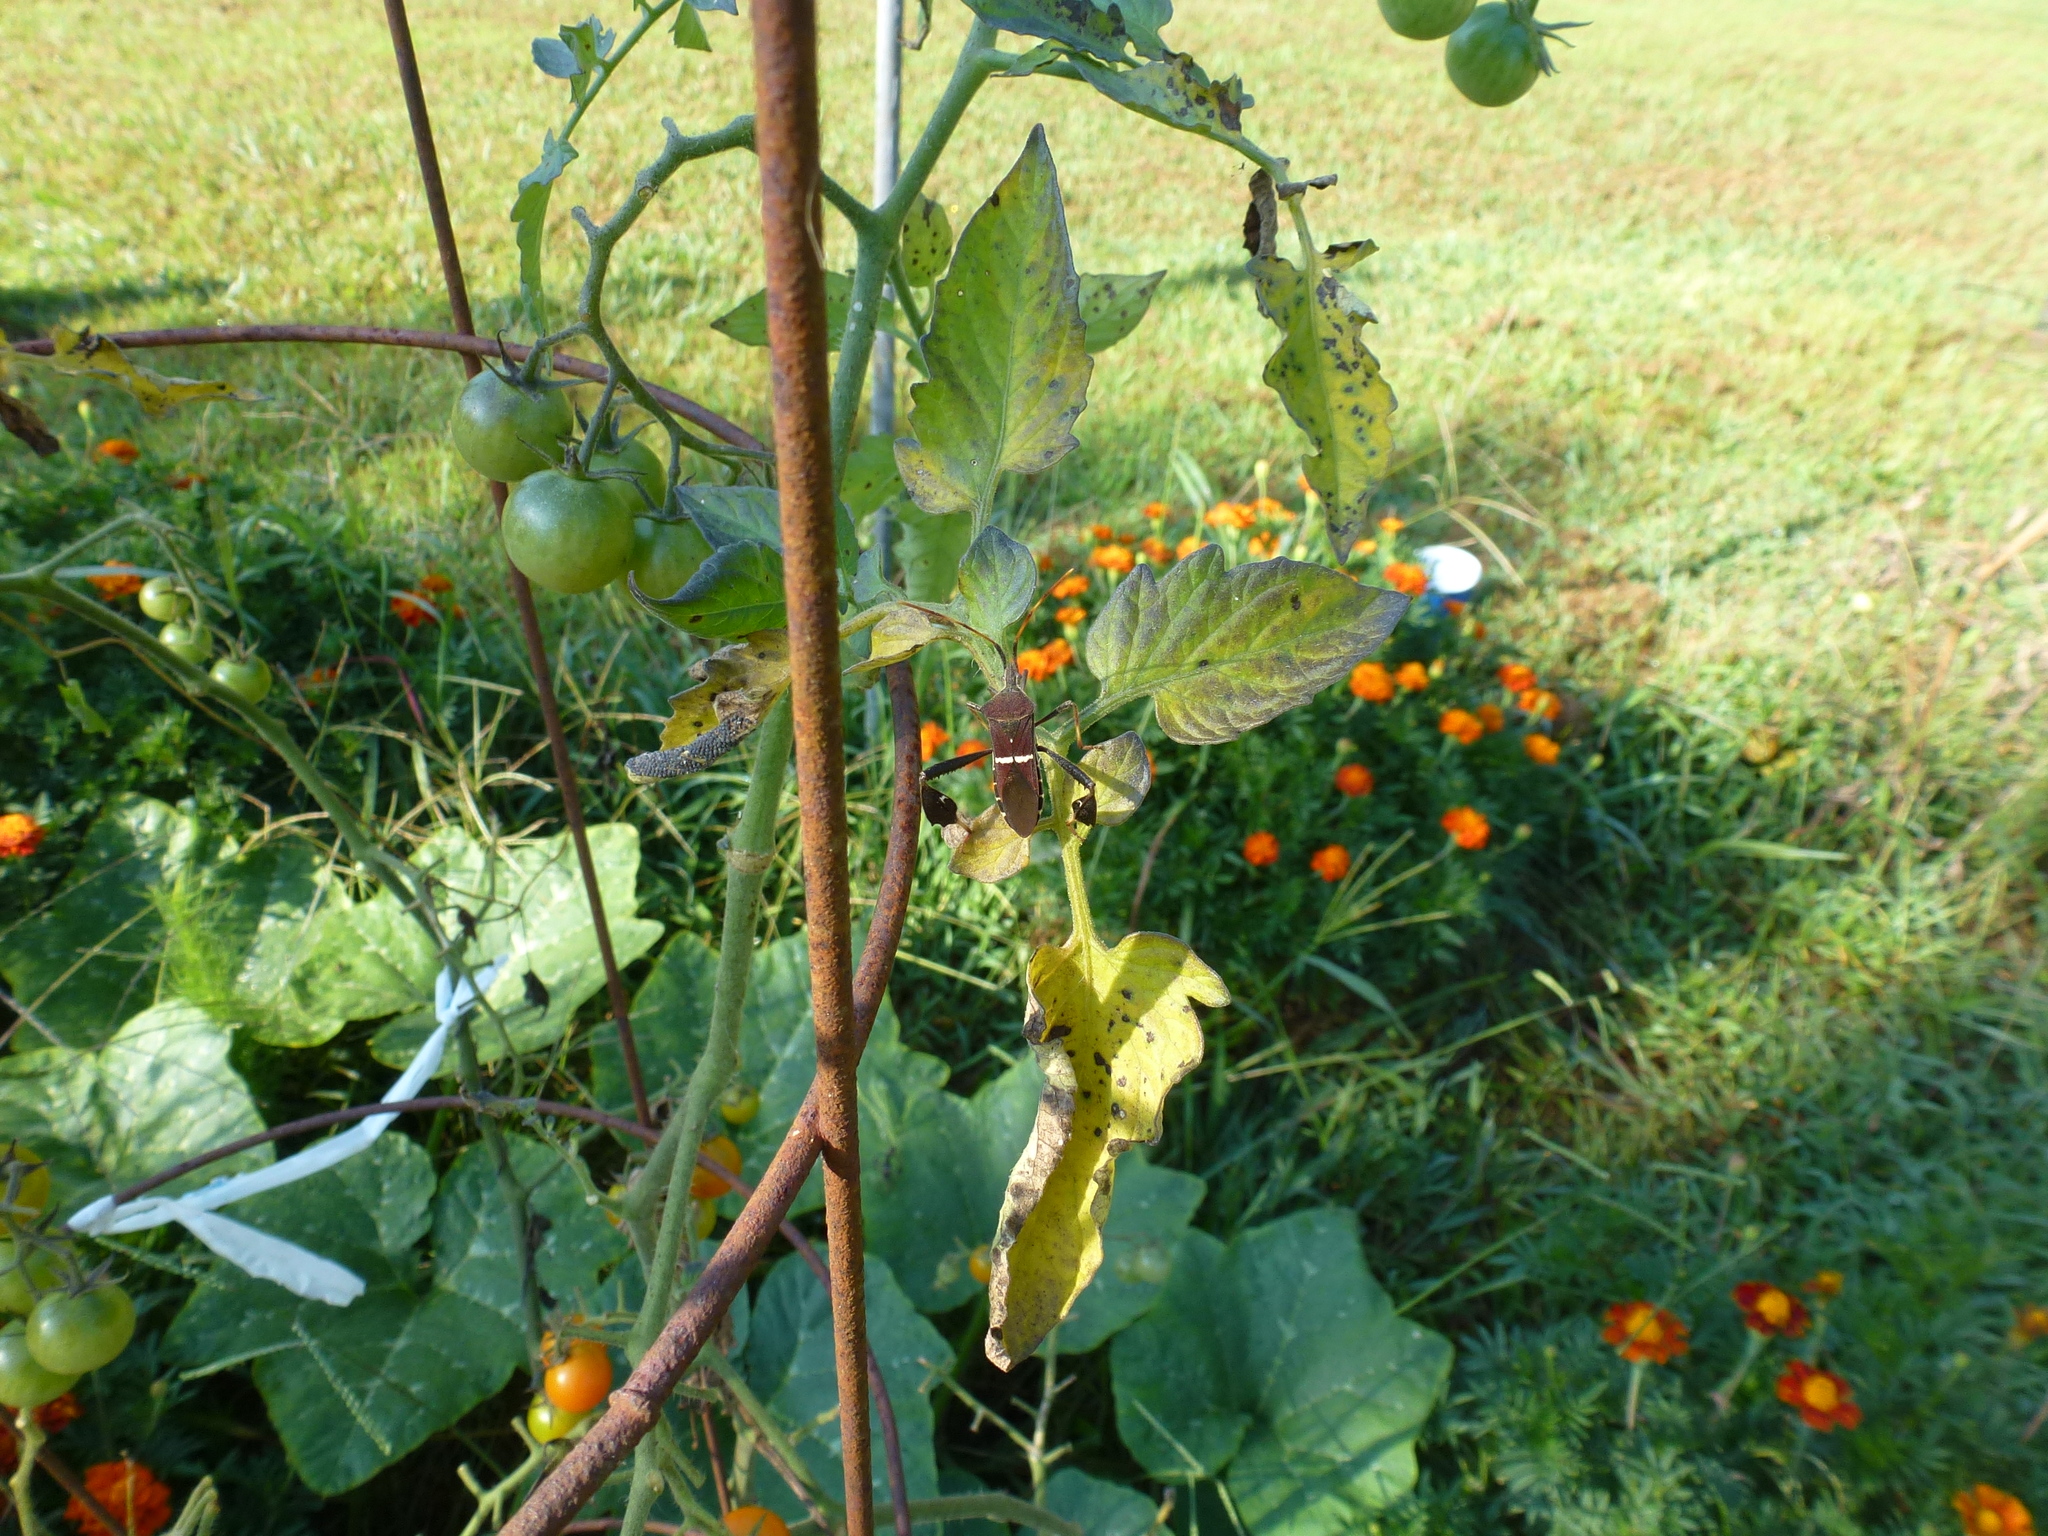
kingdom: Animalia
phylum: Arthropoda
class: Insecta
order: Hemiptera
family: Coreidae
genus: Leptoglossus
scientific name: Leptoglossus phyllopus
